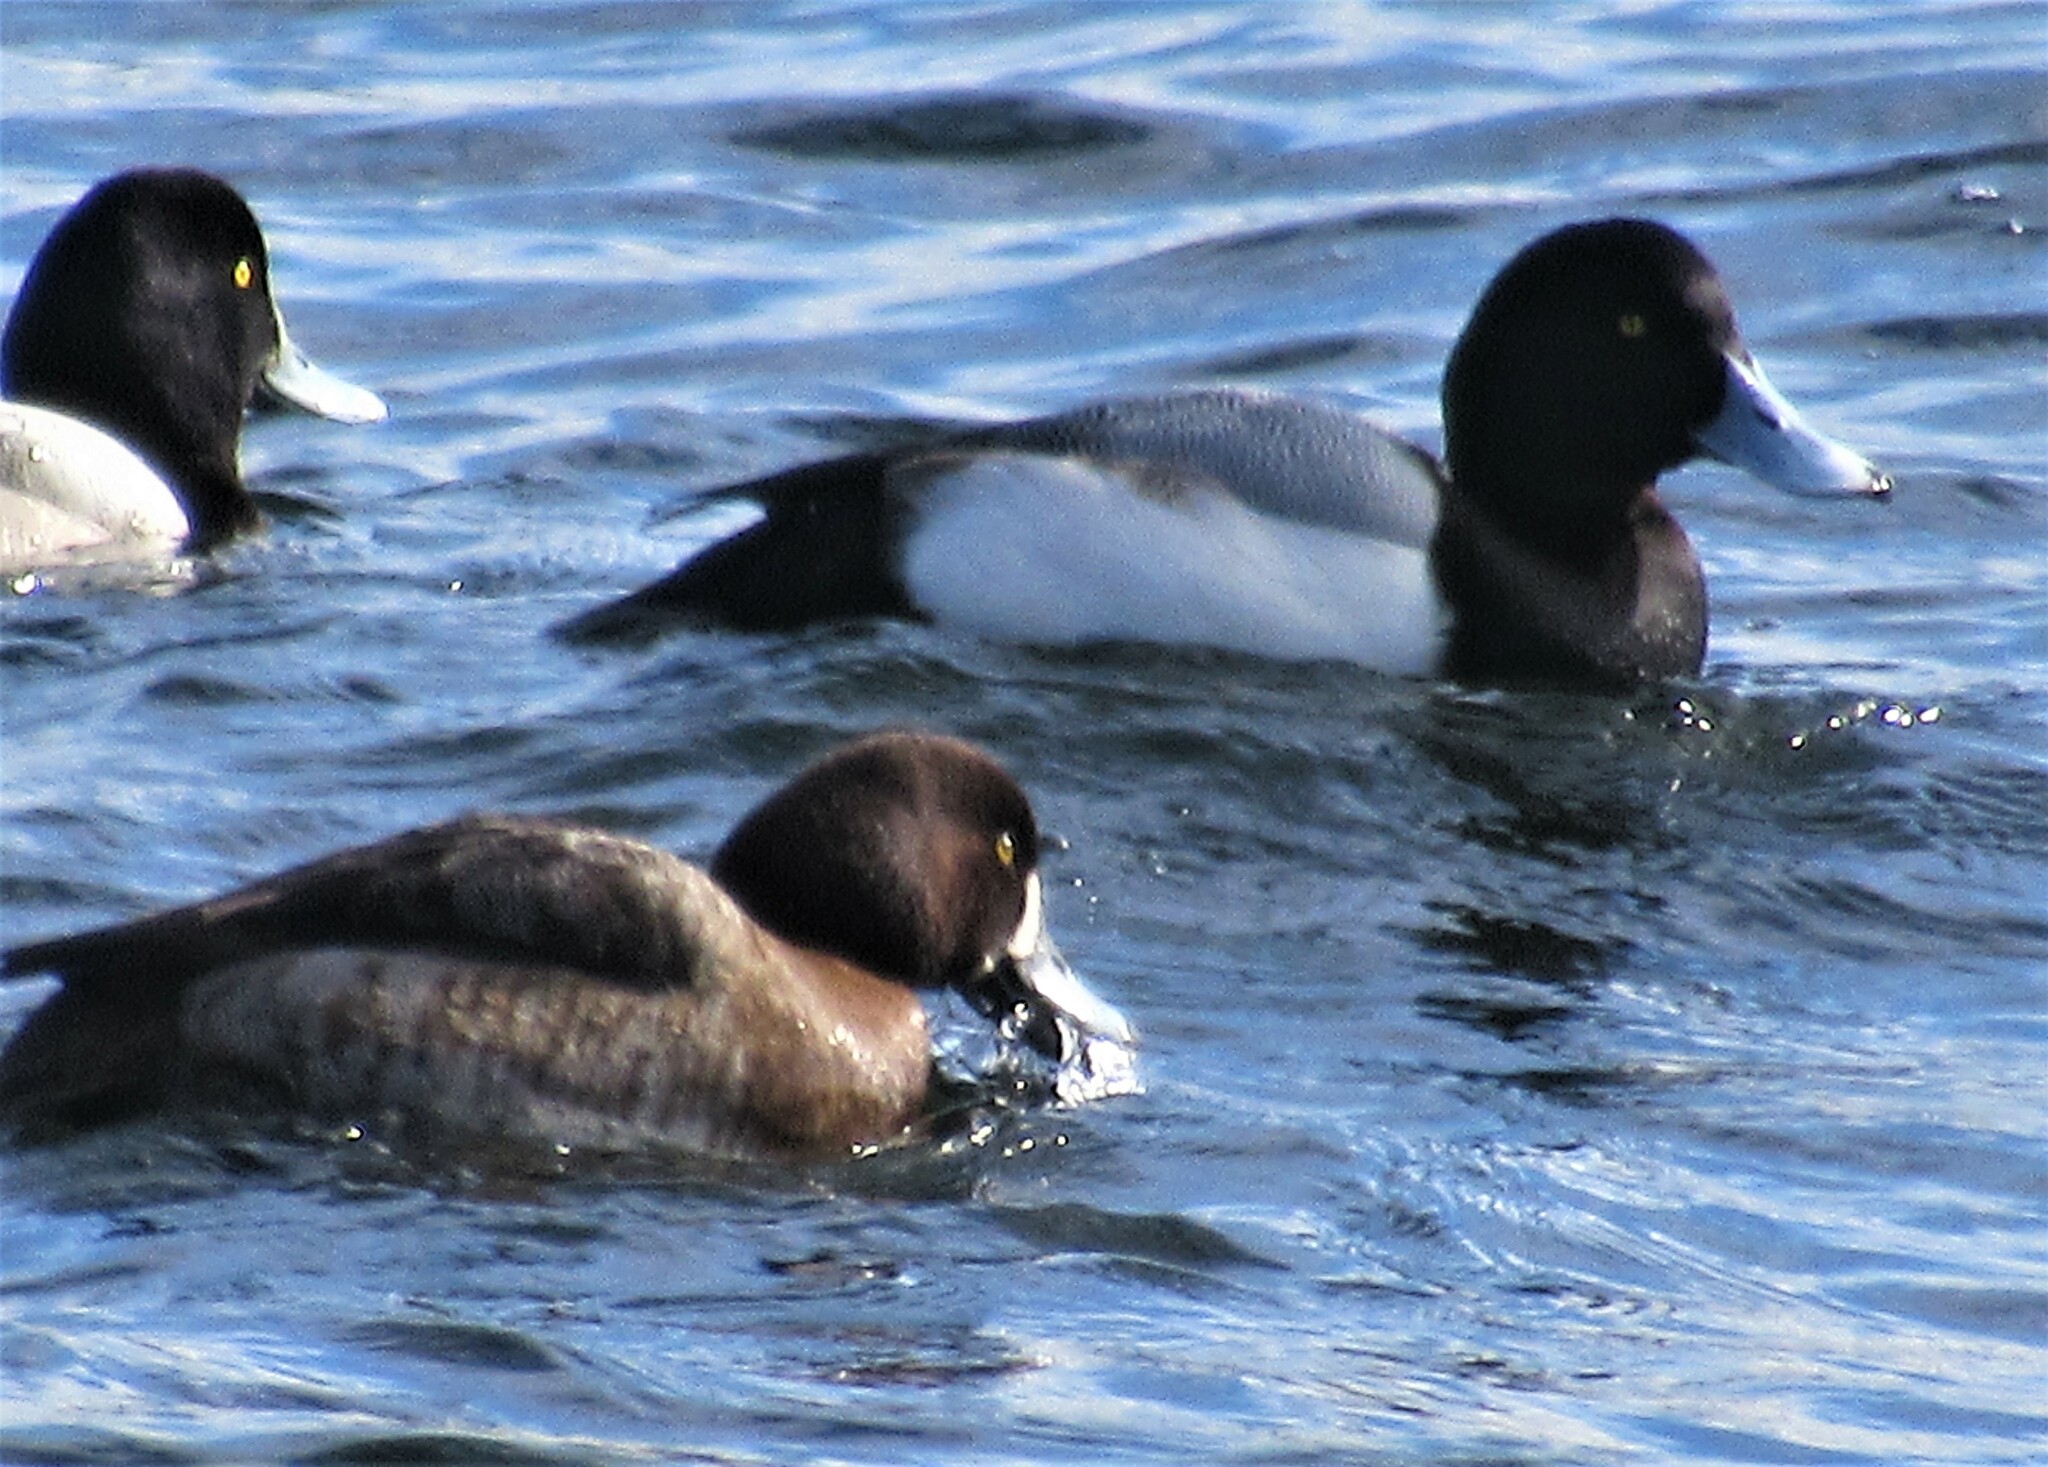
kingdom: Animalia
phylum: Chordata
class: Aves
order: Anseriformes
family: Anatidae
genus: Aythya
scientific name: Aythya marila
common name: Greater scaup
